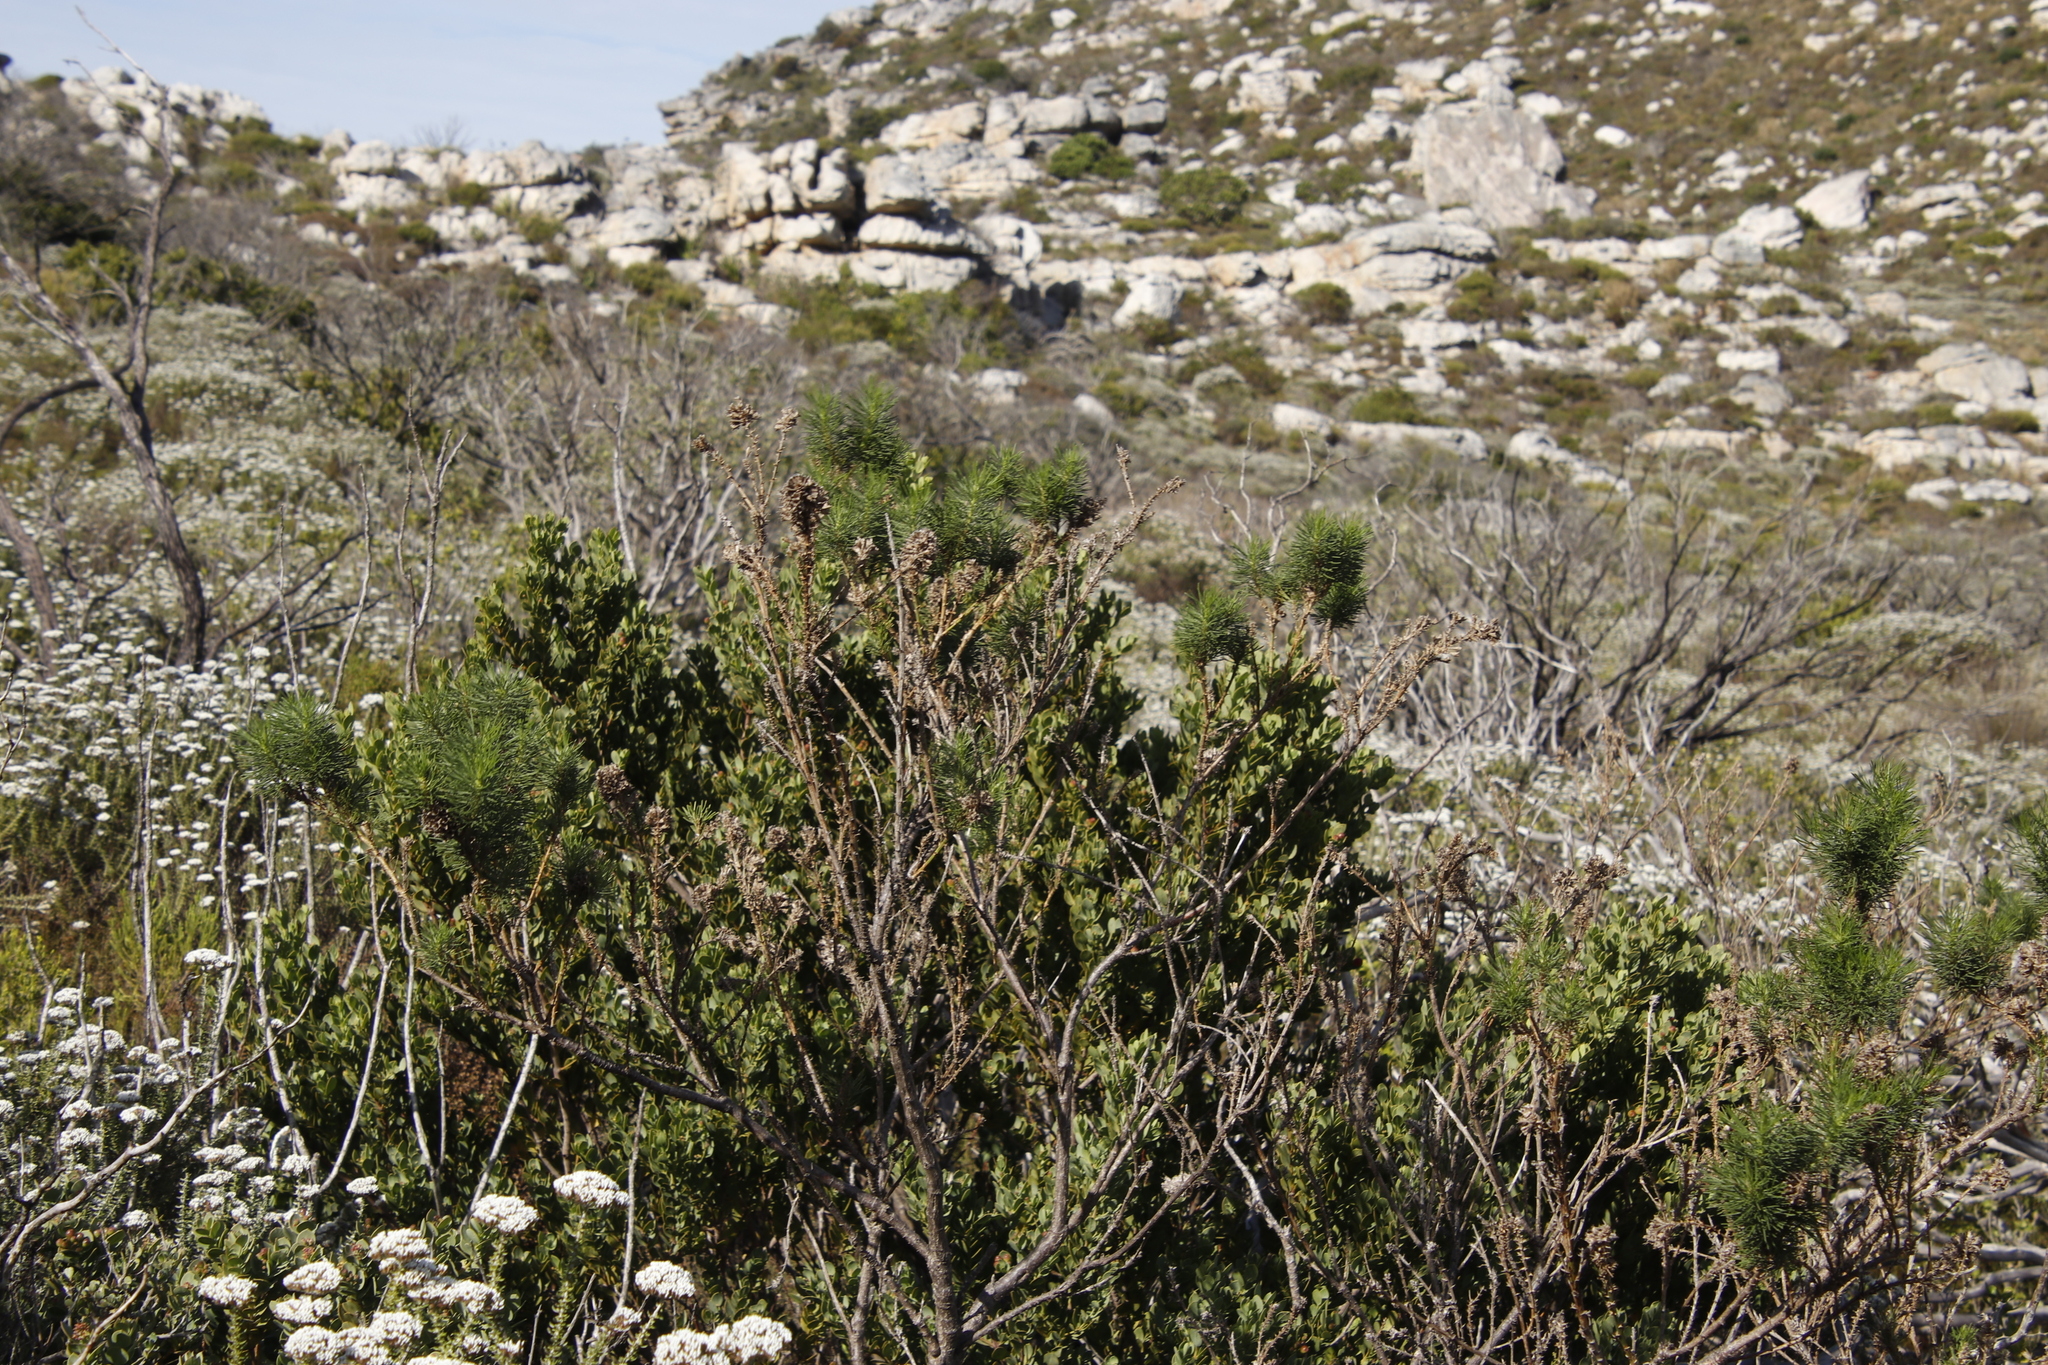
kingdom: Plantae
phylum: Tracheophyta
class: Magnoliopsida
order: Fabales
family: Fabaceae
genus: Psoralea
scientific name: Psoralea pinnata
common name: African scurfpea
